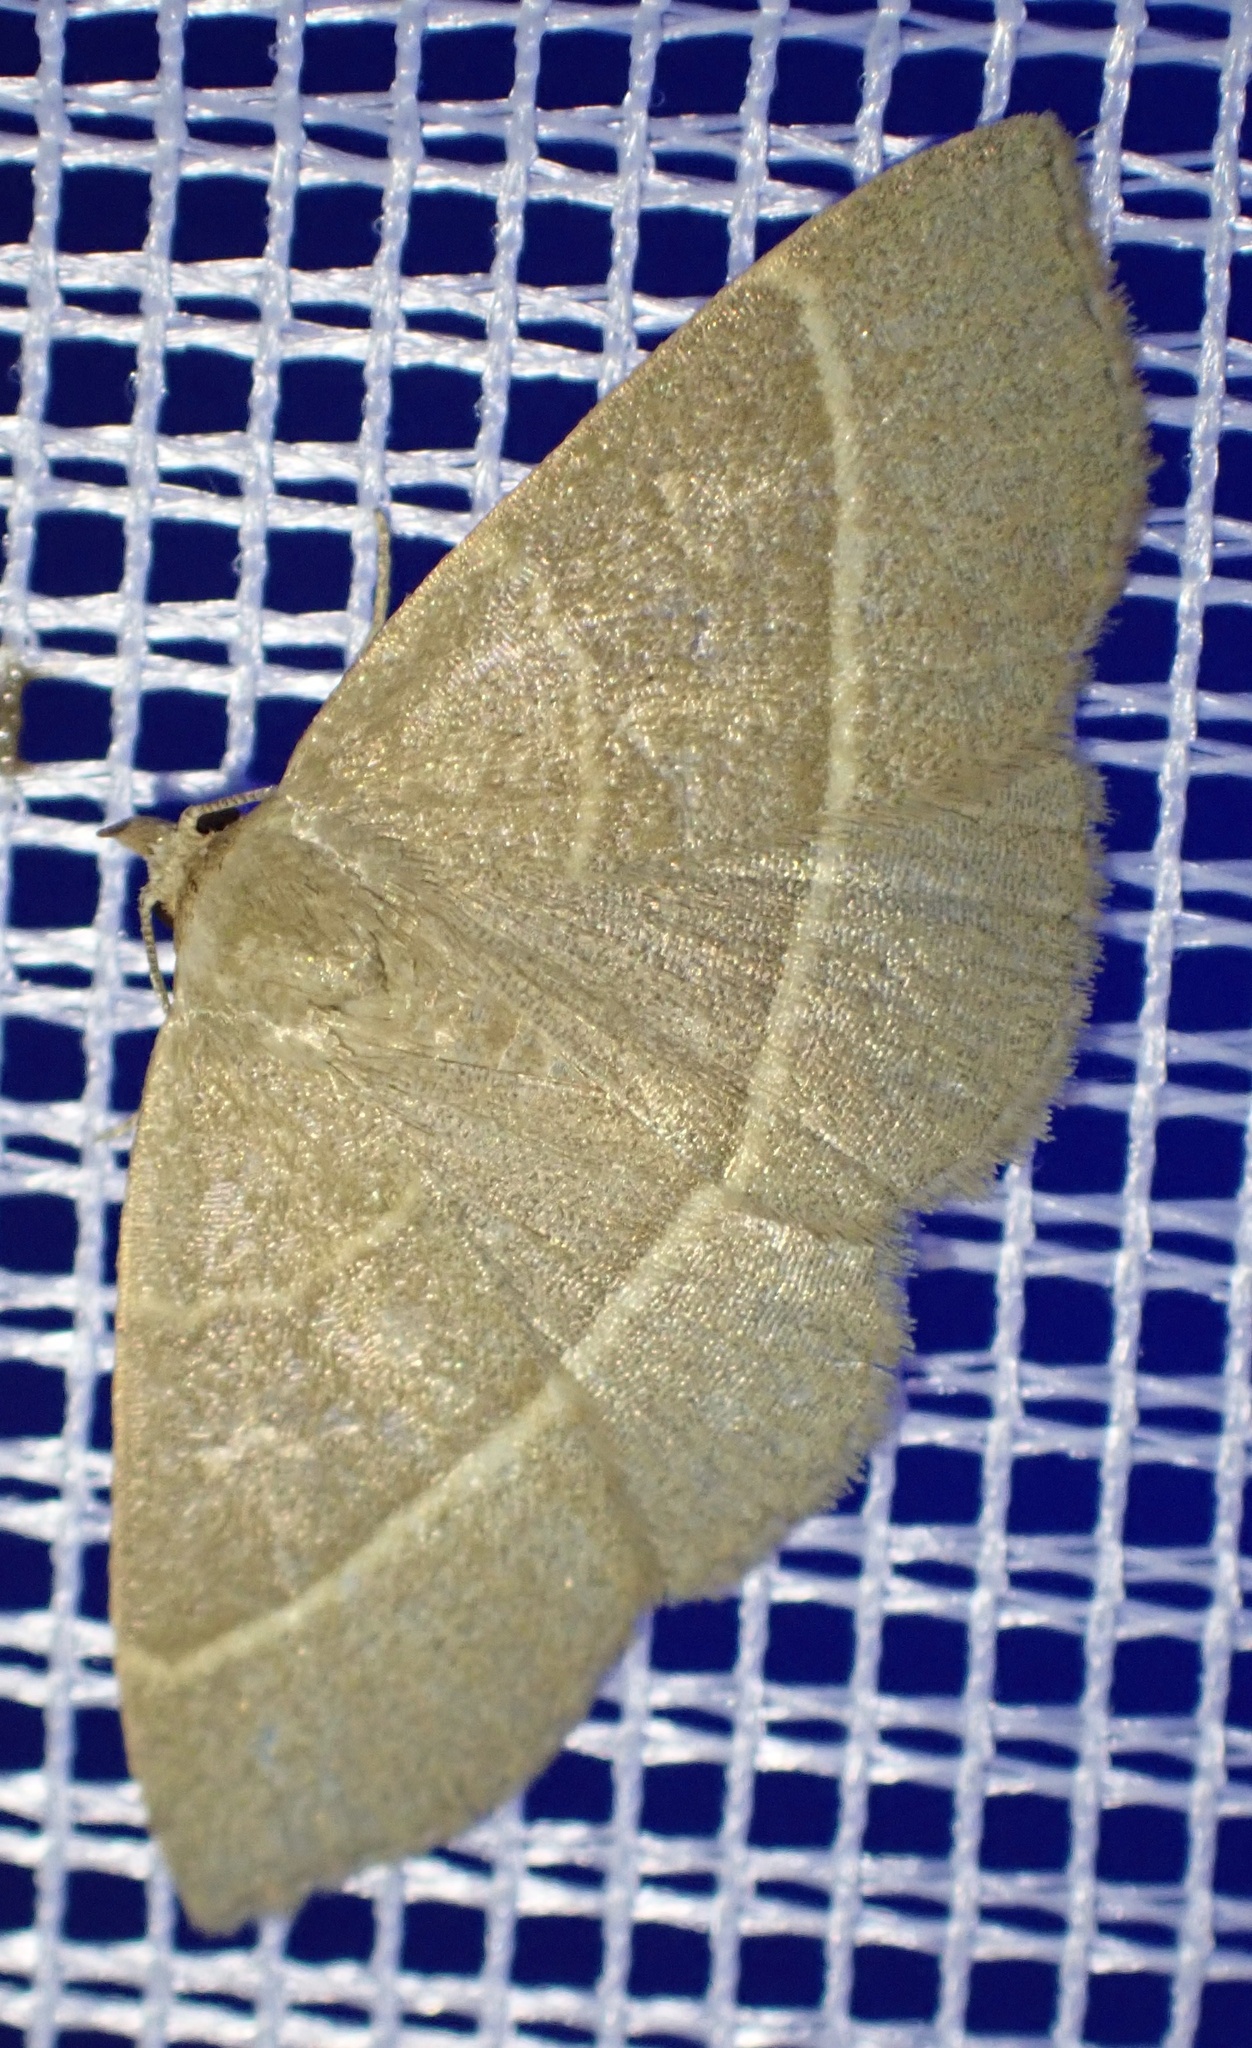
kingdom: Animalia
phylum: Arthropoda
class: Insecta
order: Lepidoptera
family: Erebidae
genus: Trisateles
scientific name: Trisateles emortualis
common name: Olive crescent
